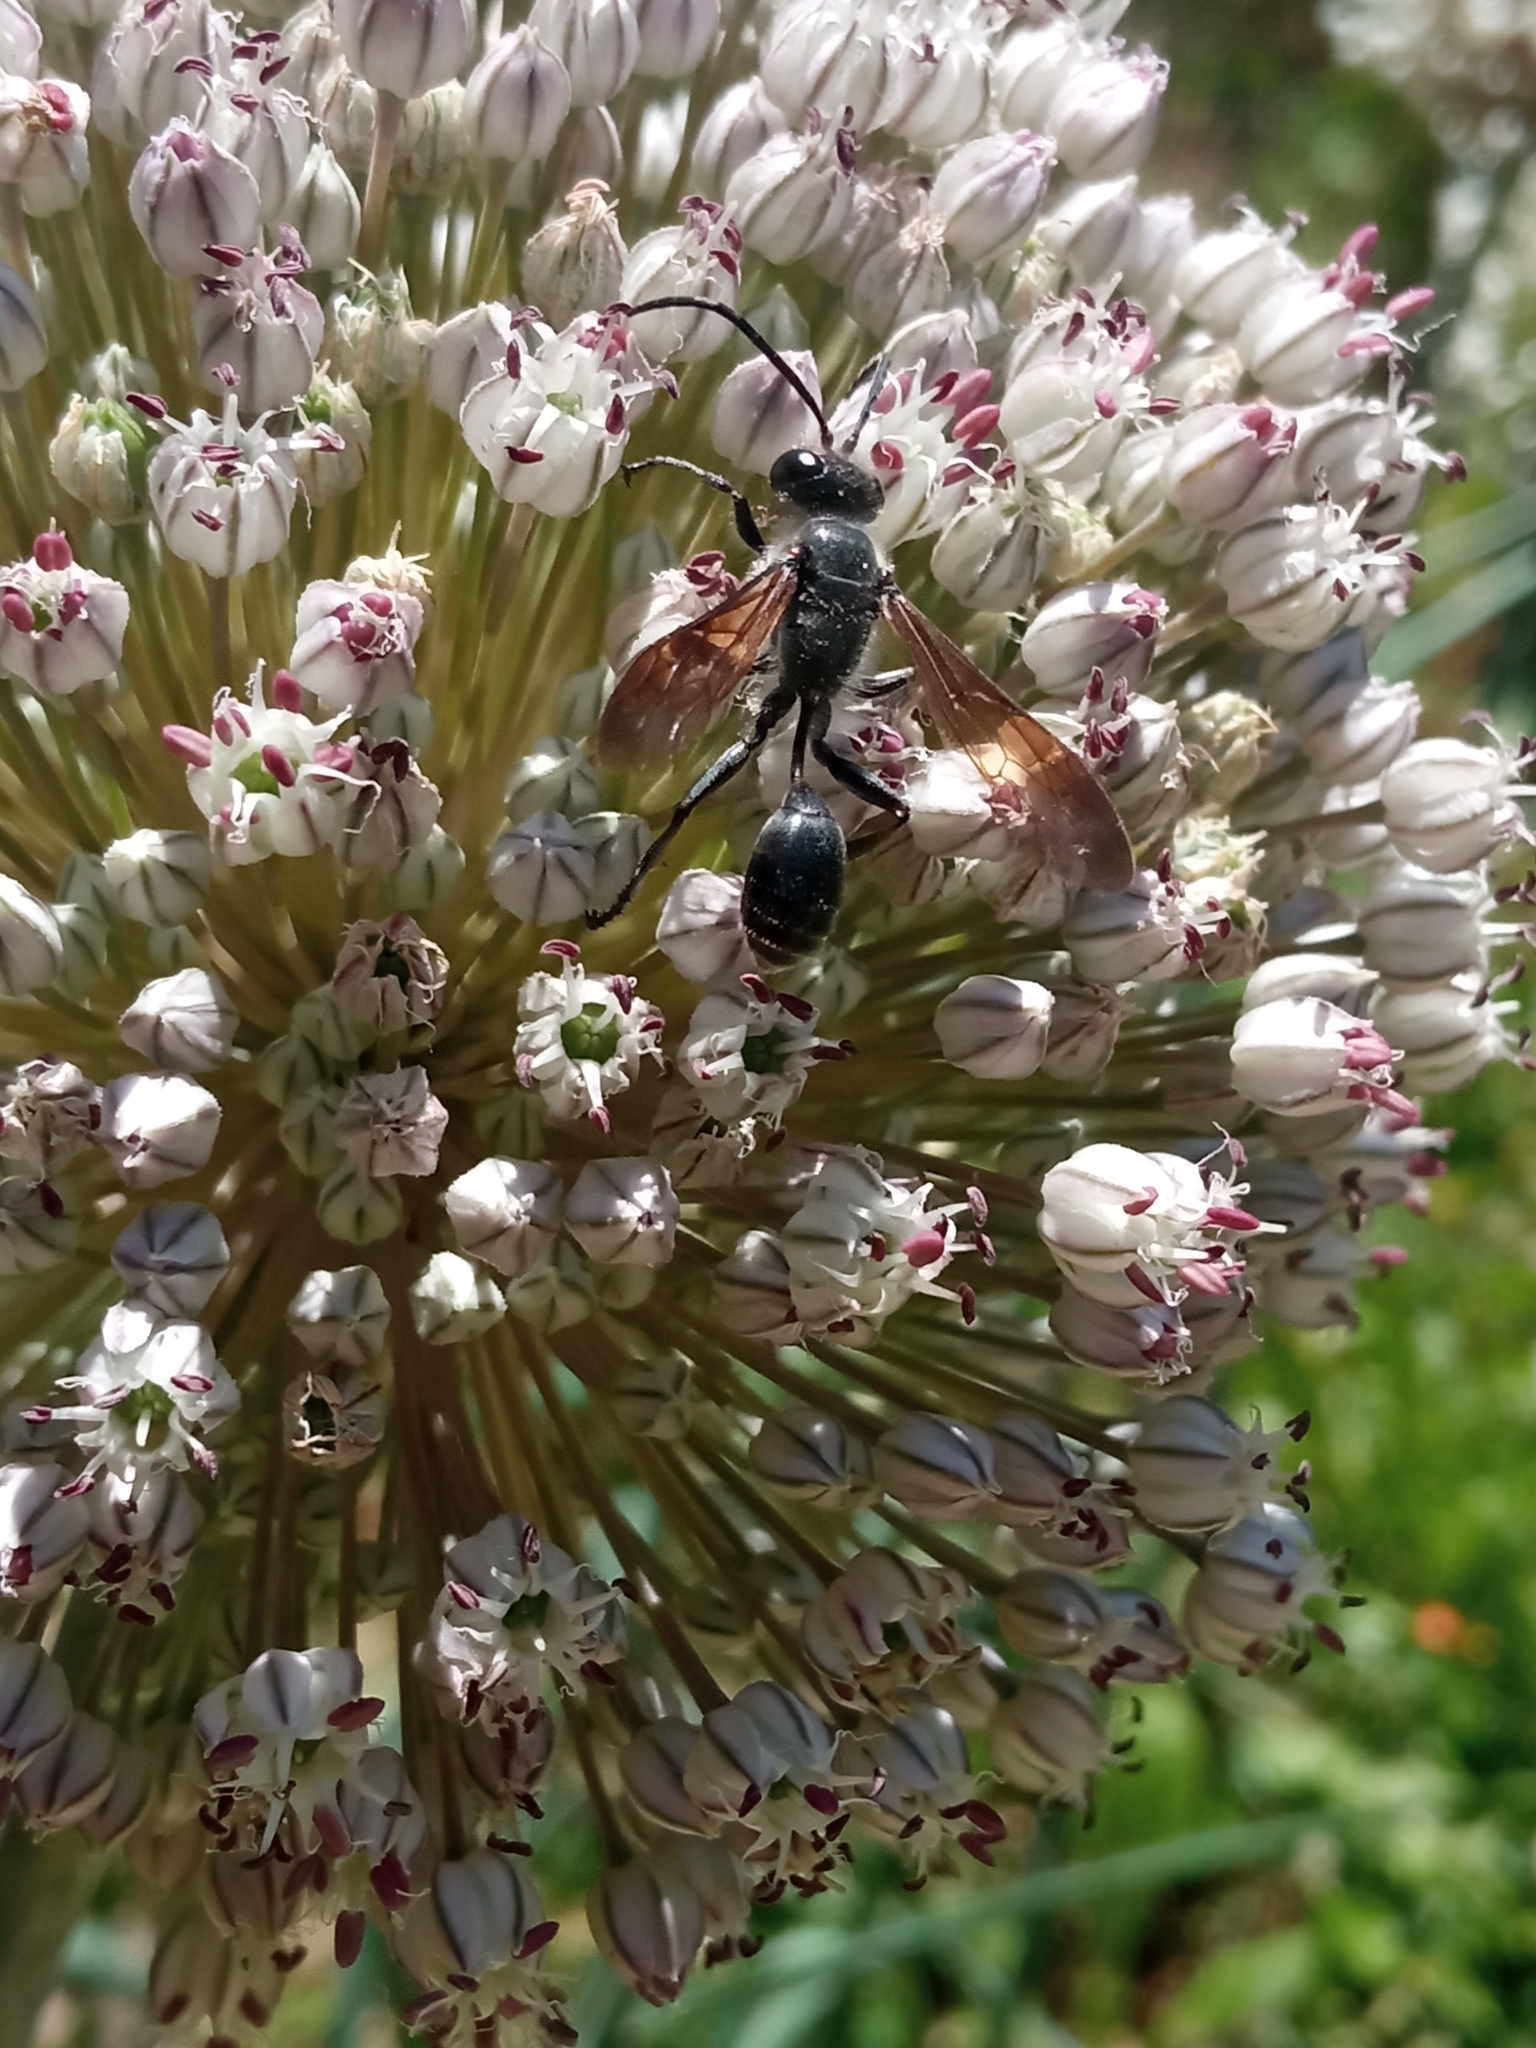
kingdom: Animalia
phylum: Arthropoda
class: Insecta
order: Hymenoptera
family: Sphecidae
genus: Isodontia
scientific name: Isodontia mexicana
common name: Mud dauber
